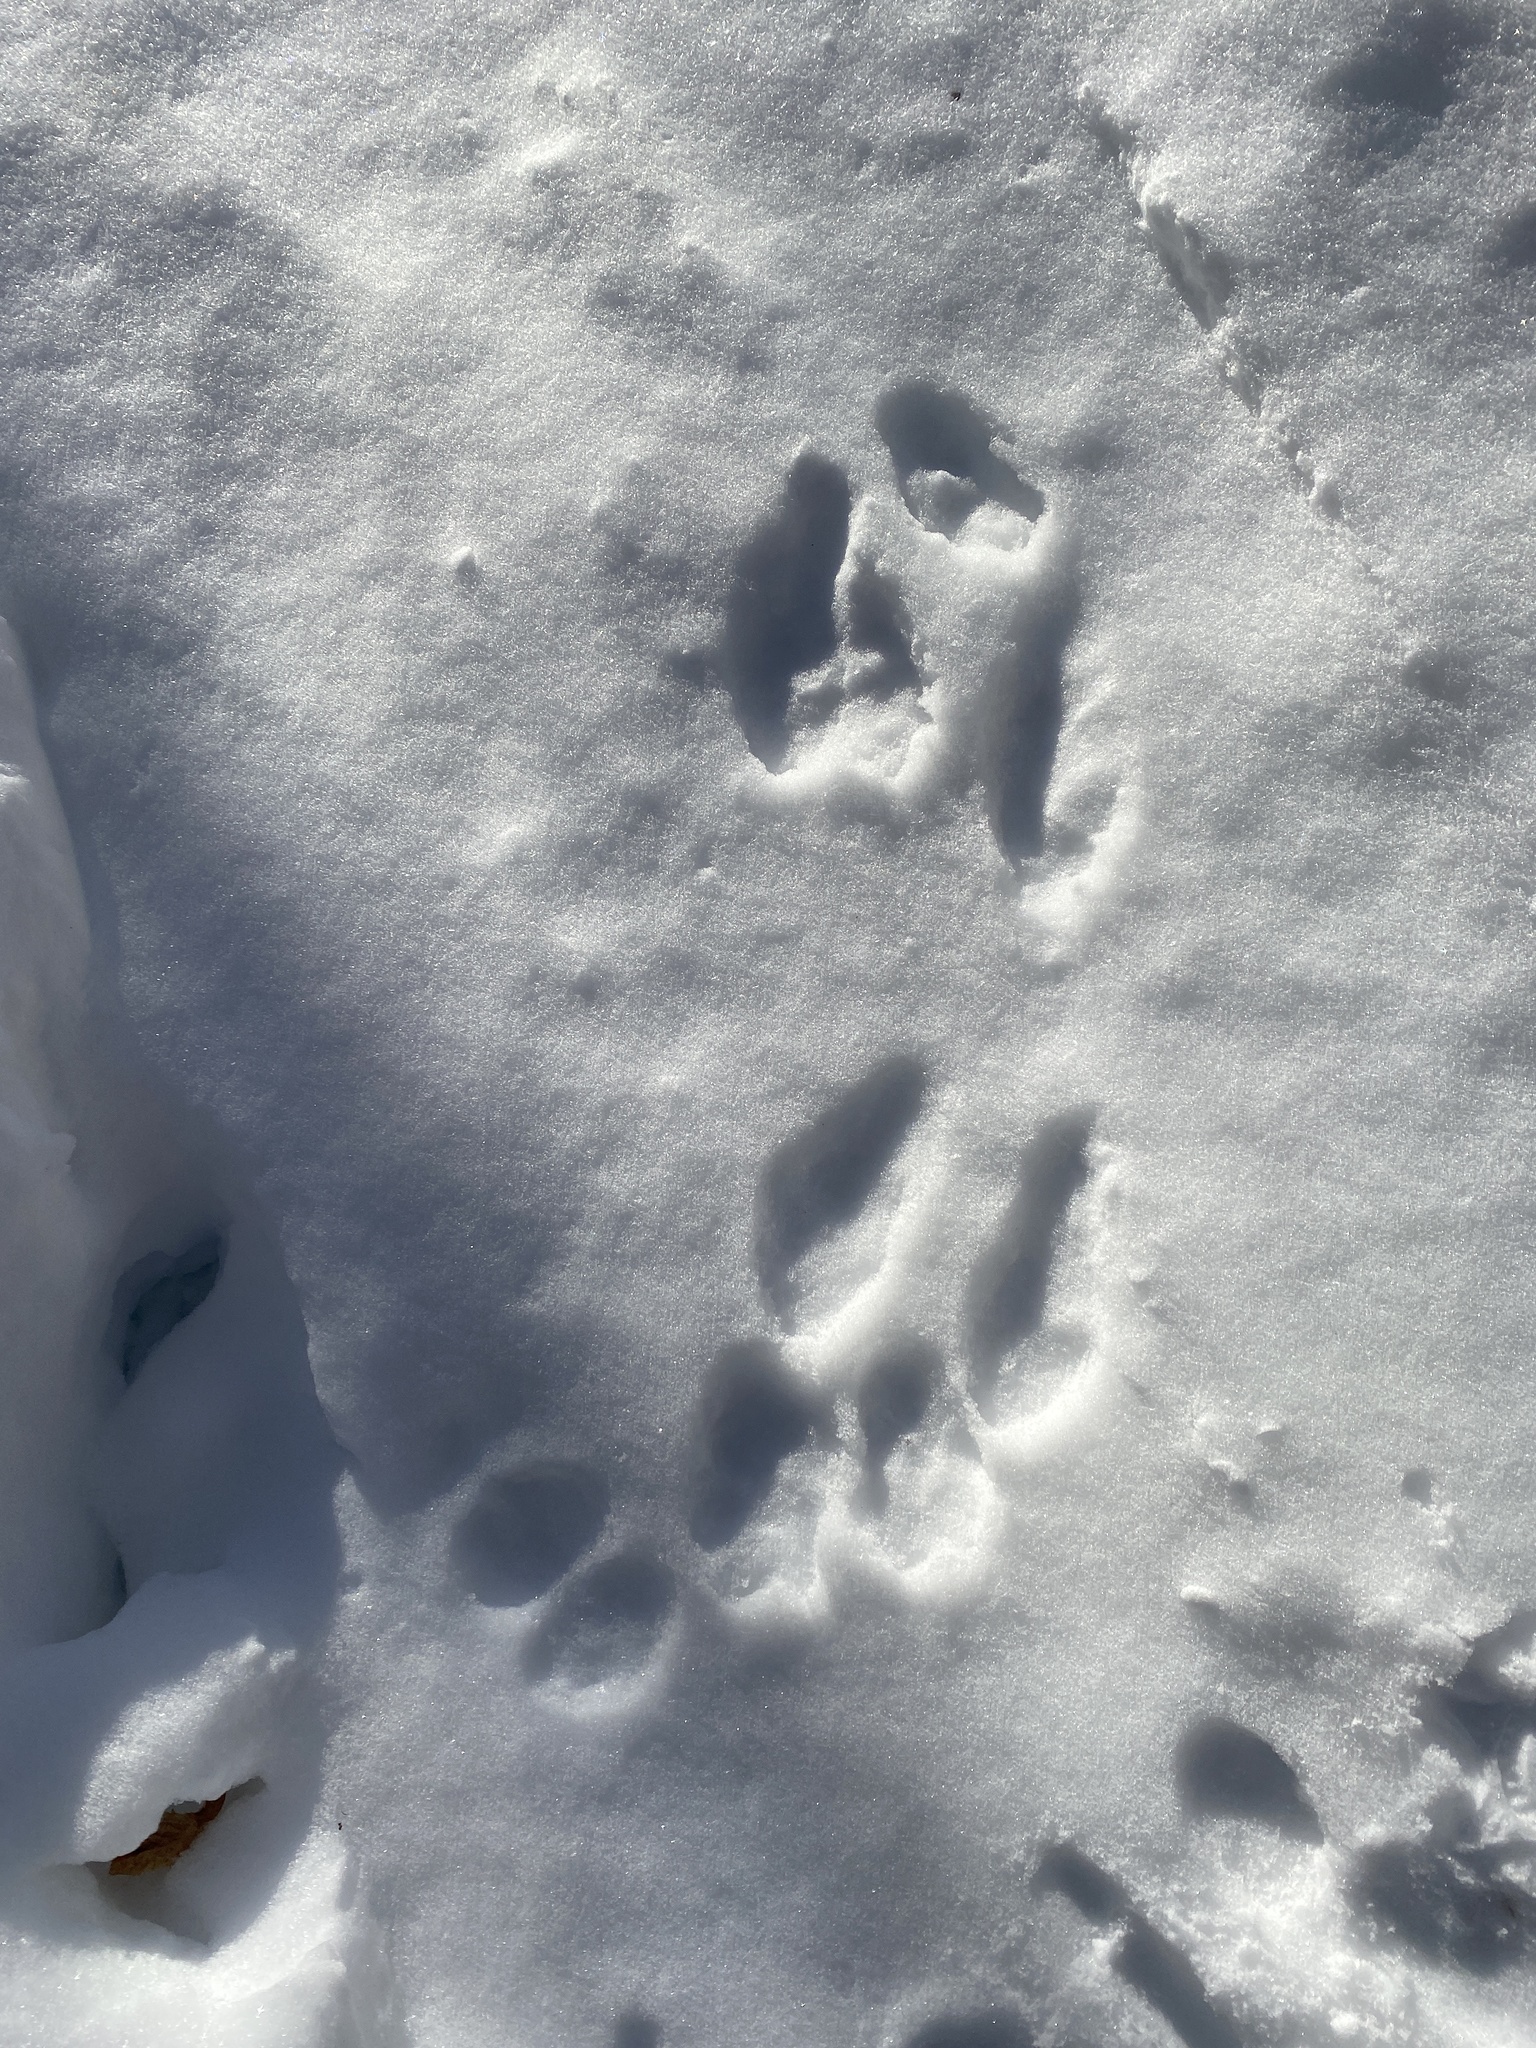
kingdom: Animalia
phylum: Chordata
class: Mammalia
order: Lagomorpha
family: Leporidae
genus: Lepus
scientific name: Lepus americanus
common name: Snowshoe hare
